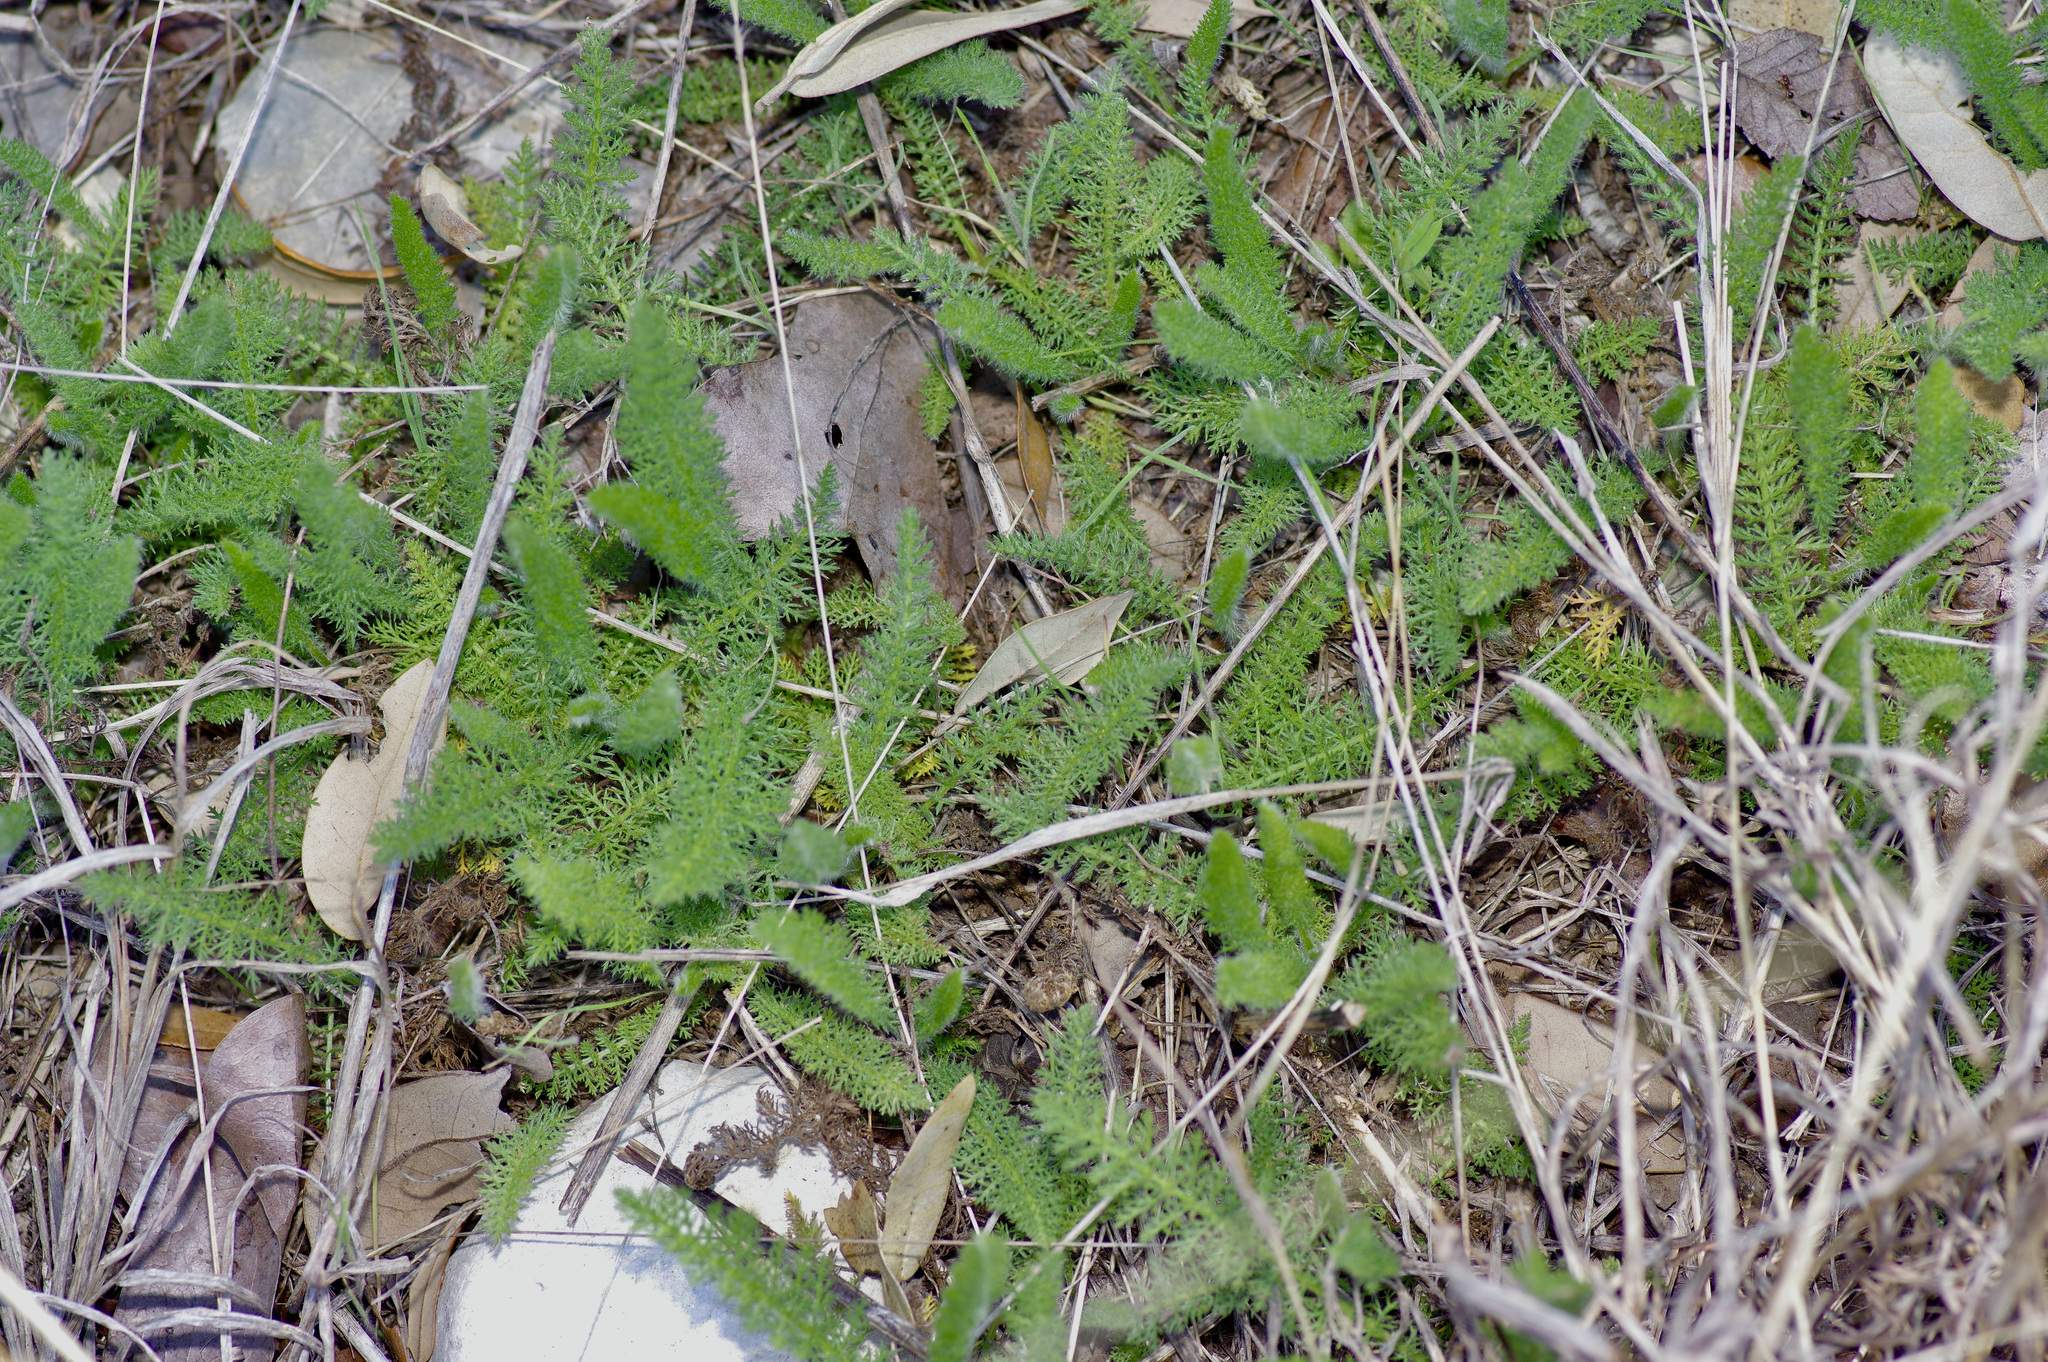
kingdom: Plantae
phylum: Tracheophyta
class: Magnoliopsida
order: Asterales
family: Asteraceae
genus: Achillea
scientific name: Achillea millefolium
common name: Yarrow
